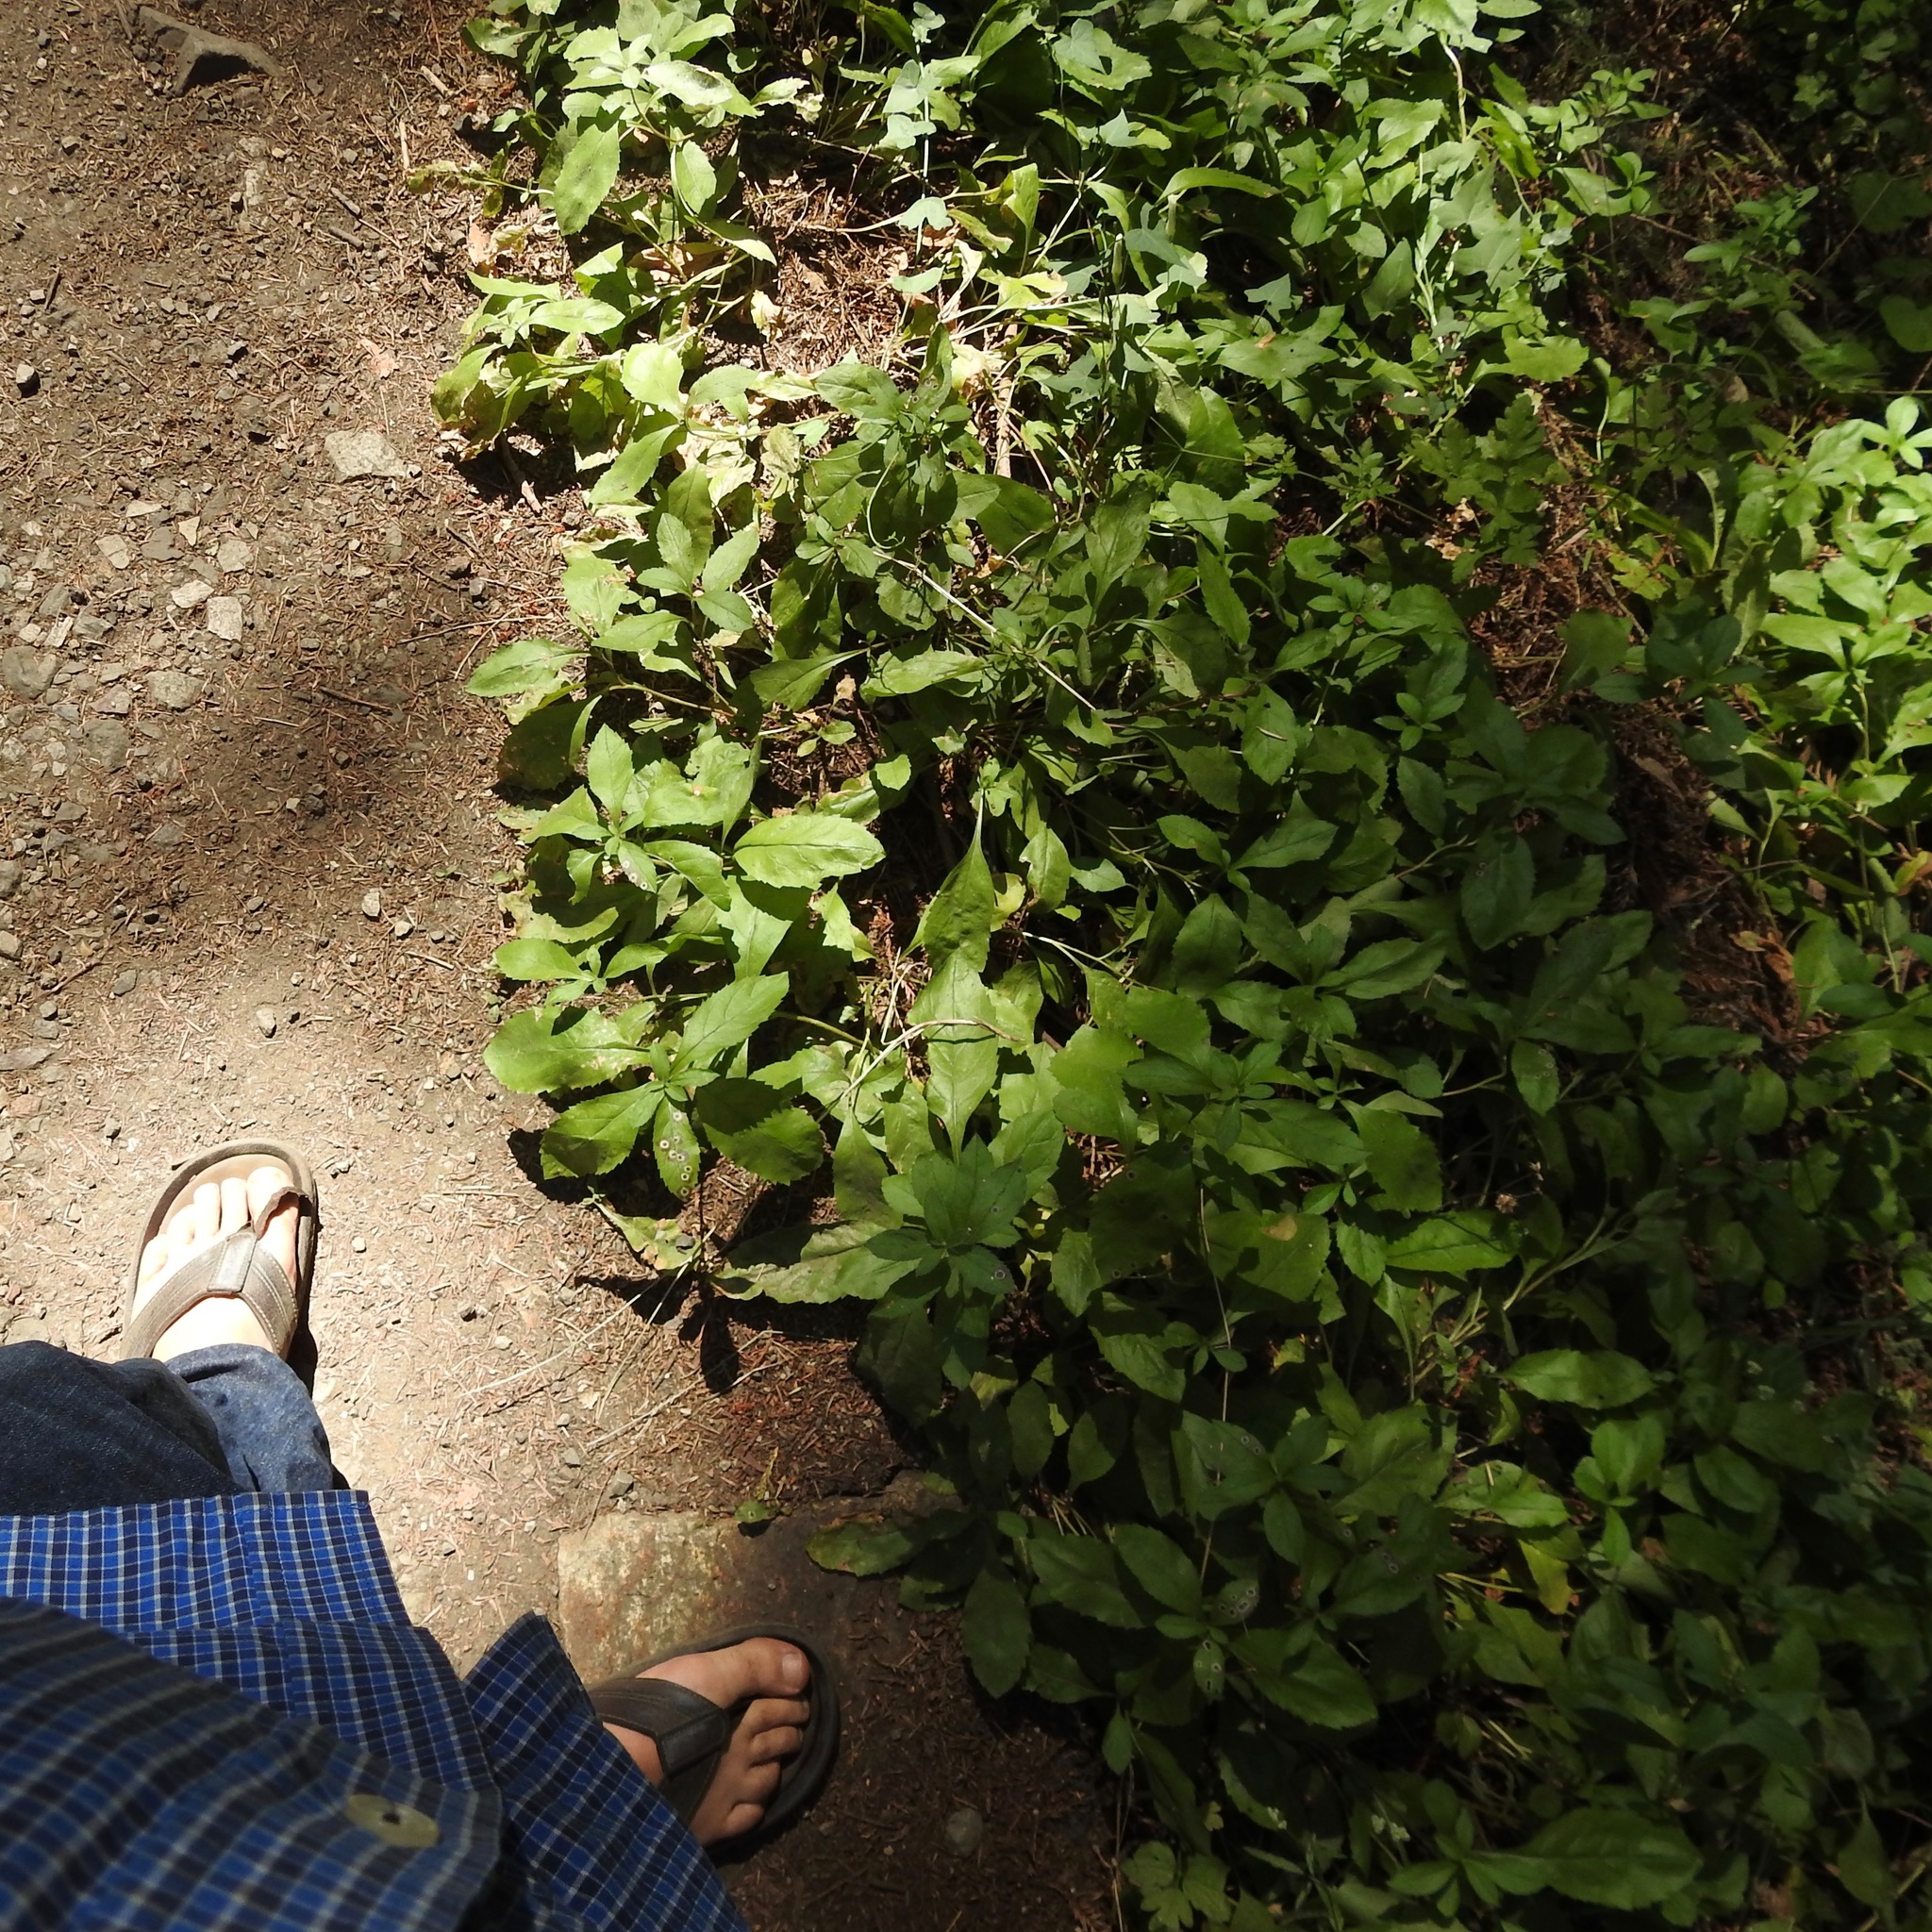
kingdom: Plantae
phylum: Tracheophyta
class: Magnoliopsida
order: Asterales
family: Asteraceae
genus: Eurybia
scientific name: Eurybia radulina
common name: Rough-leaved aster
